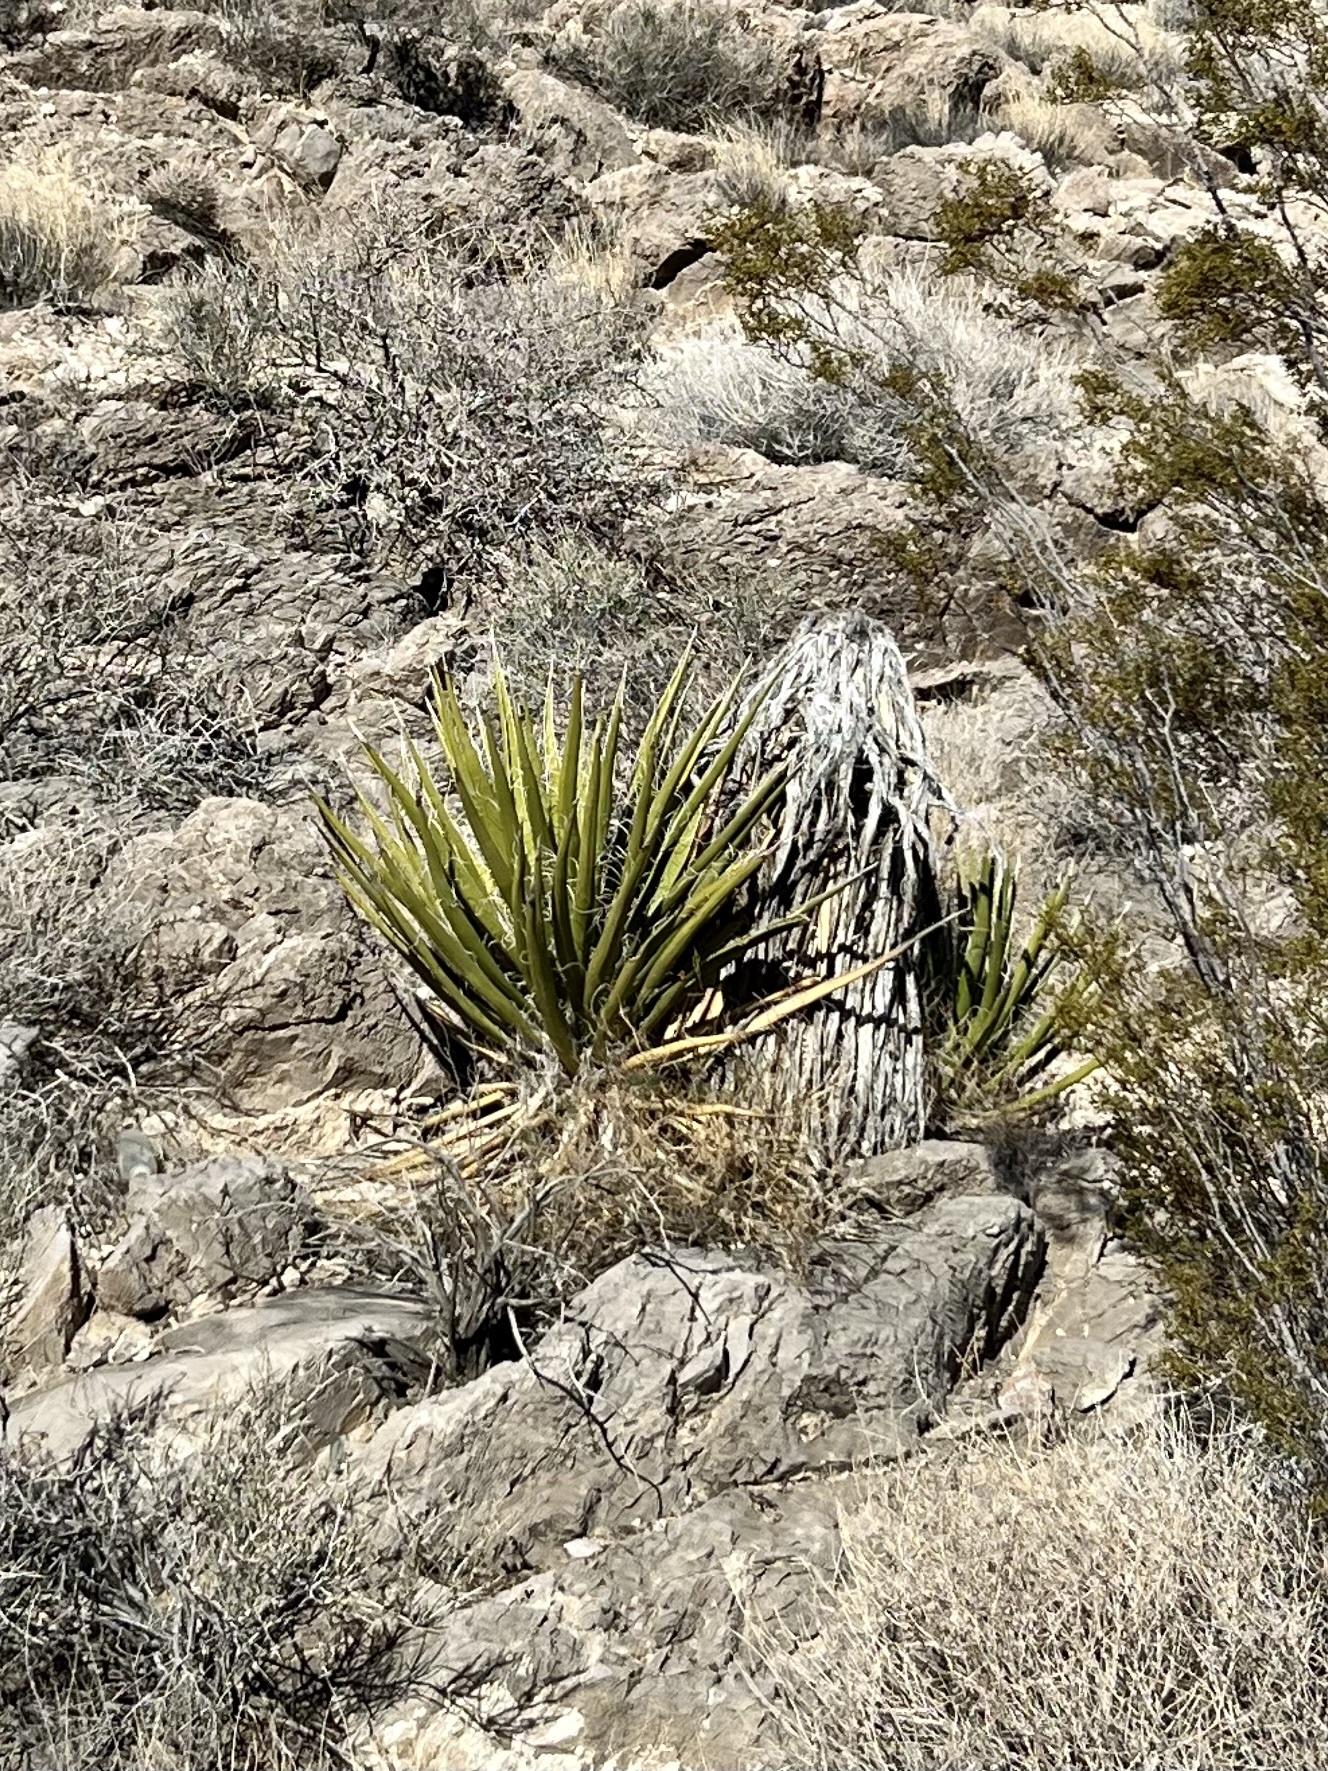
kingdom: Plantae
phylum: Tracheophyta
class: Liliopsida
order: Asparagales
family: Asparagaceae
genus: Yucca
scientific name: Yucca schidigera
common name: Mojave yucca
